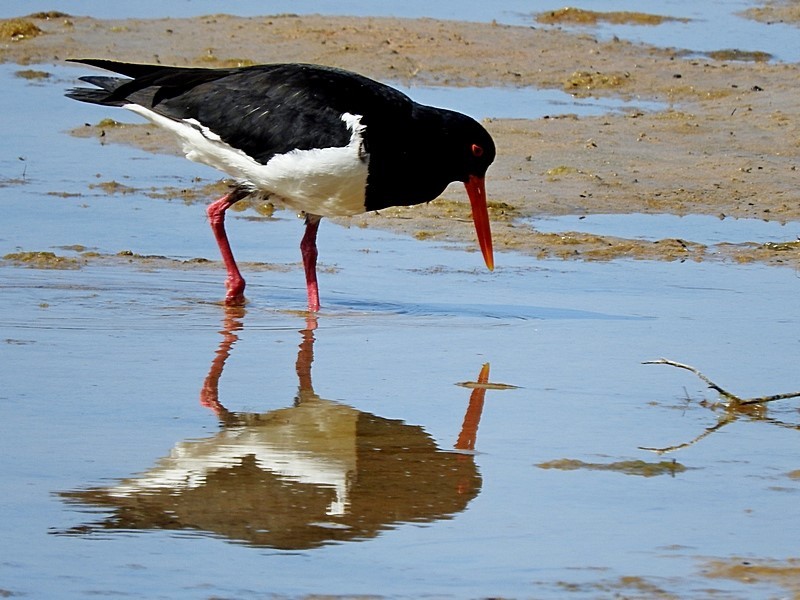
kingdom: Animalia
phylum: Chordata
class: Aves
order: Charadriiformes
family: Haematopodidae
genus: Haematopus
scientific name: Haematopus longirostris
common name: Pied oystercatcher
